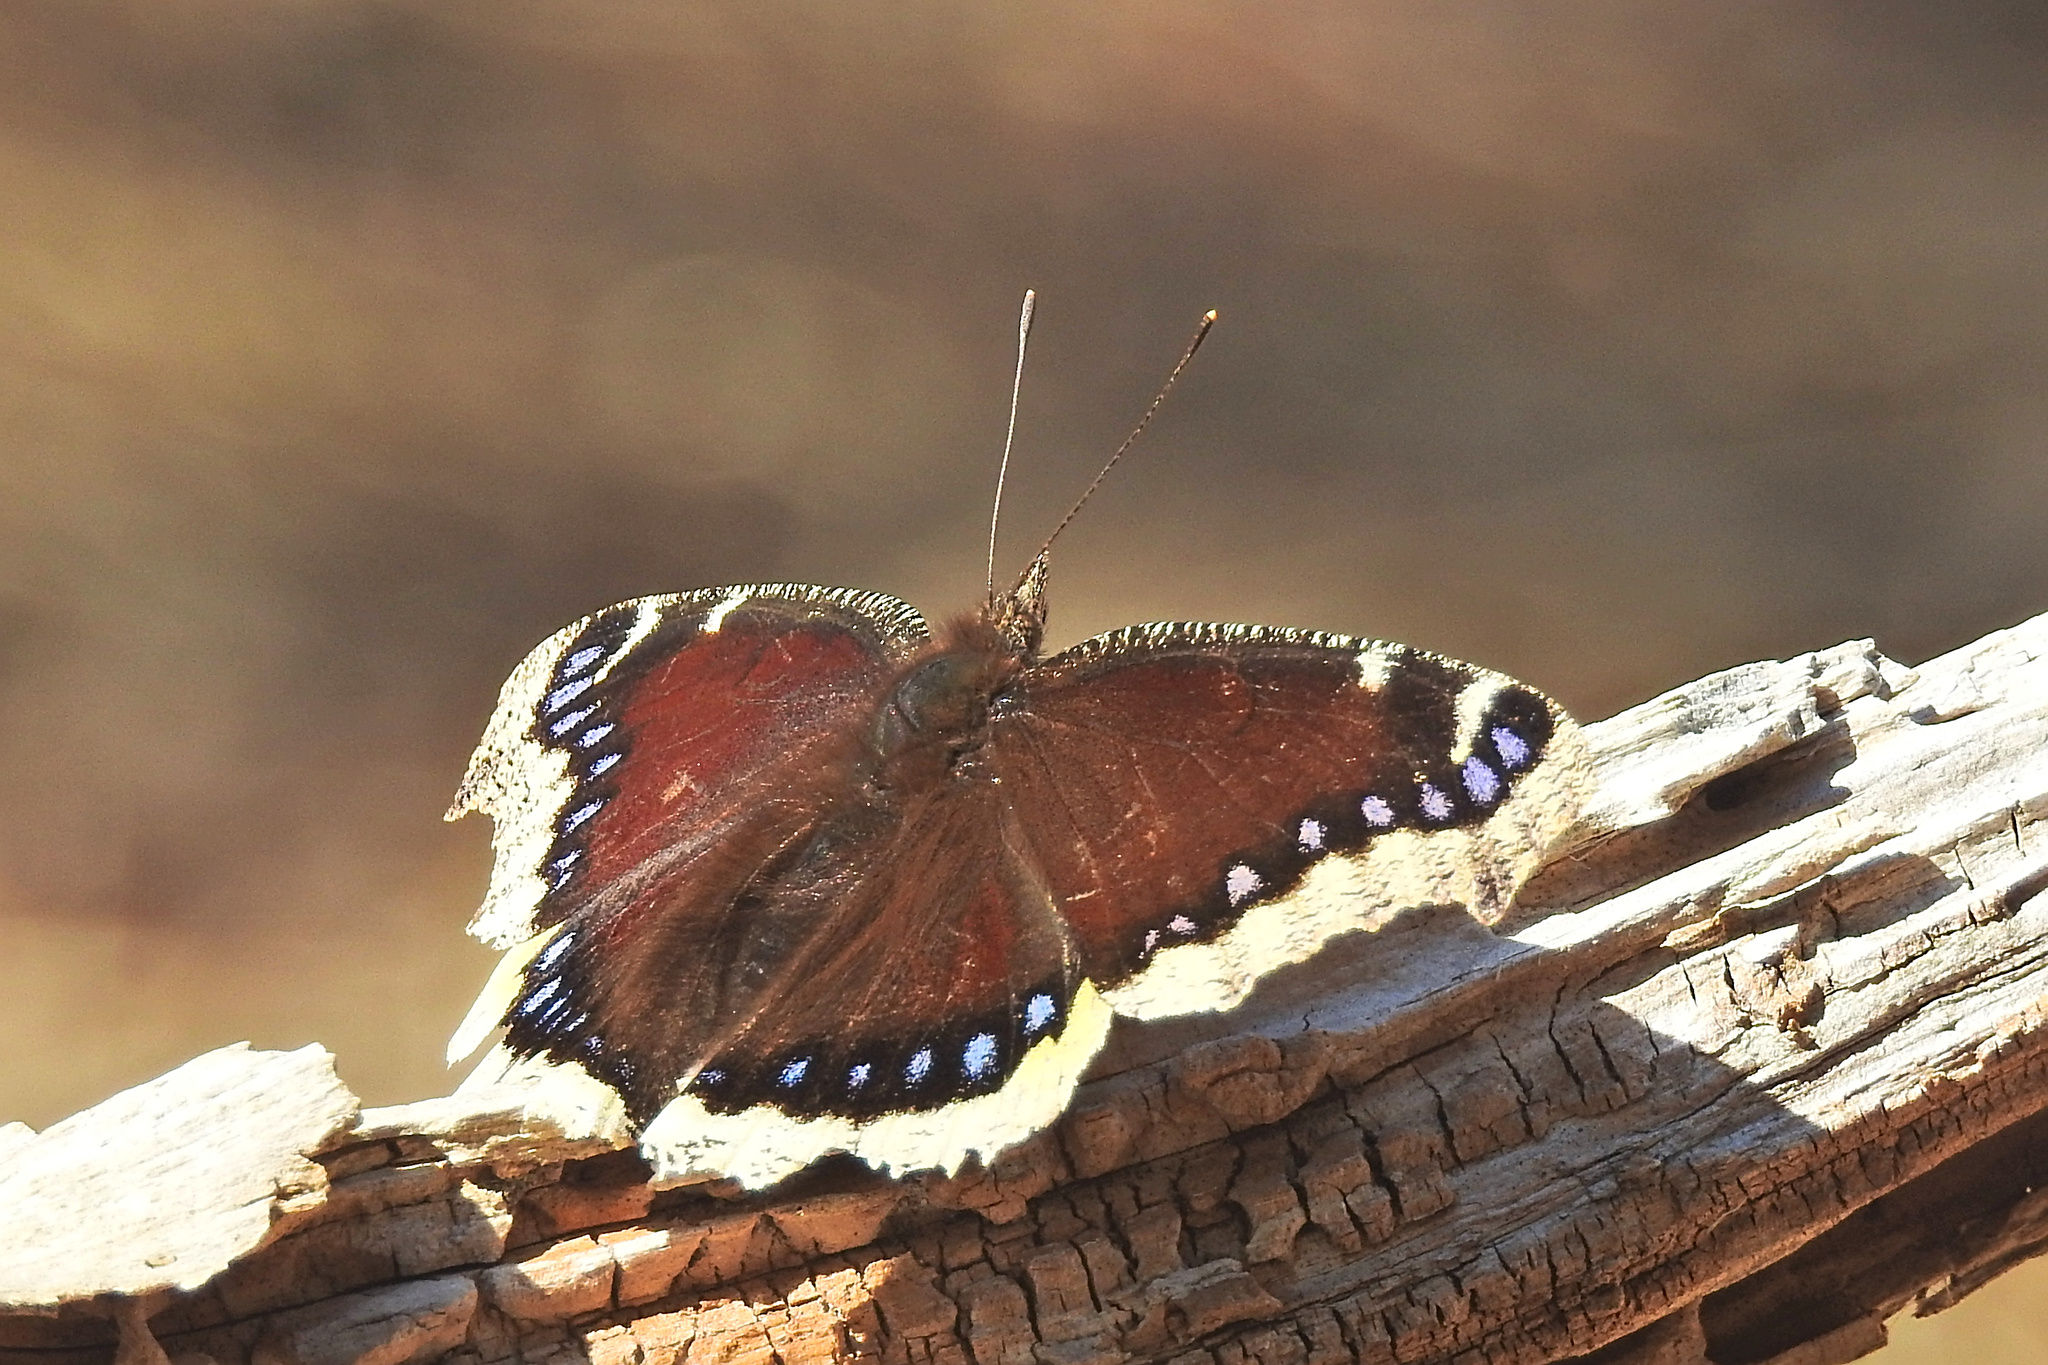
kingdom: Animalia
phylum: Arthropoda
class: Insecta
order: Lepidoptera
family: Nymphalidae
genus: Nymphalis
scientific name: Nymphalis antiopa
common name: Camberwell beauty
